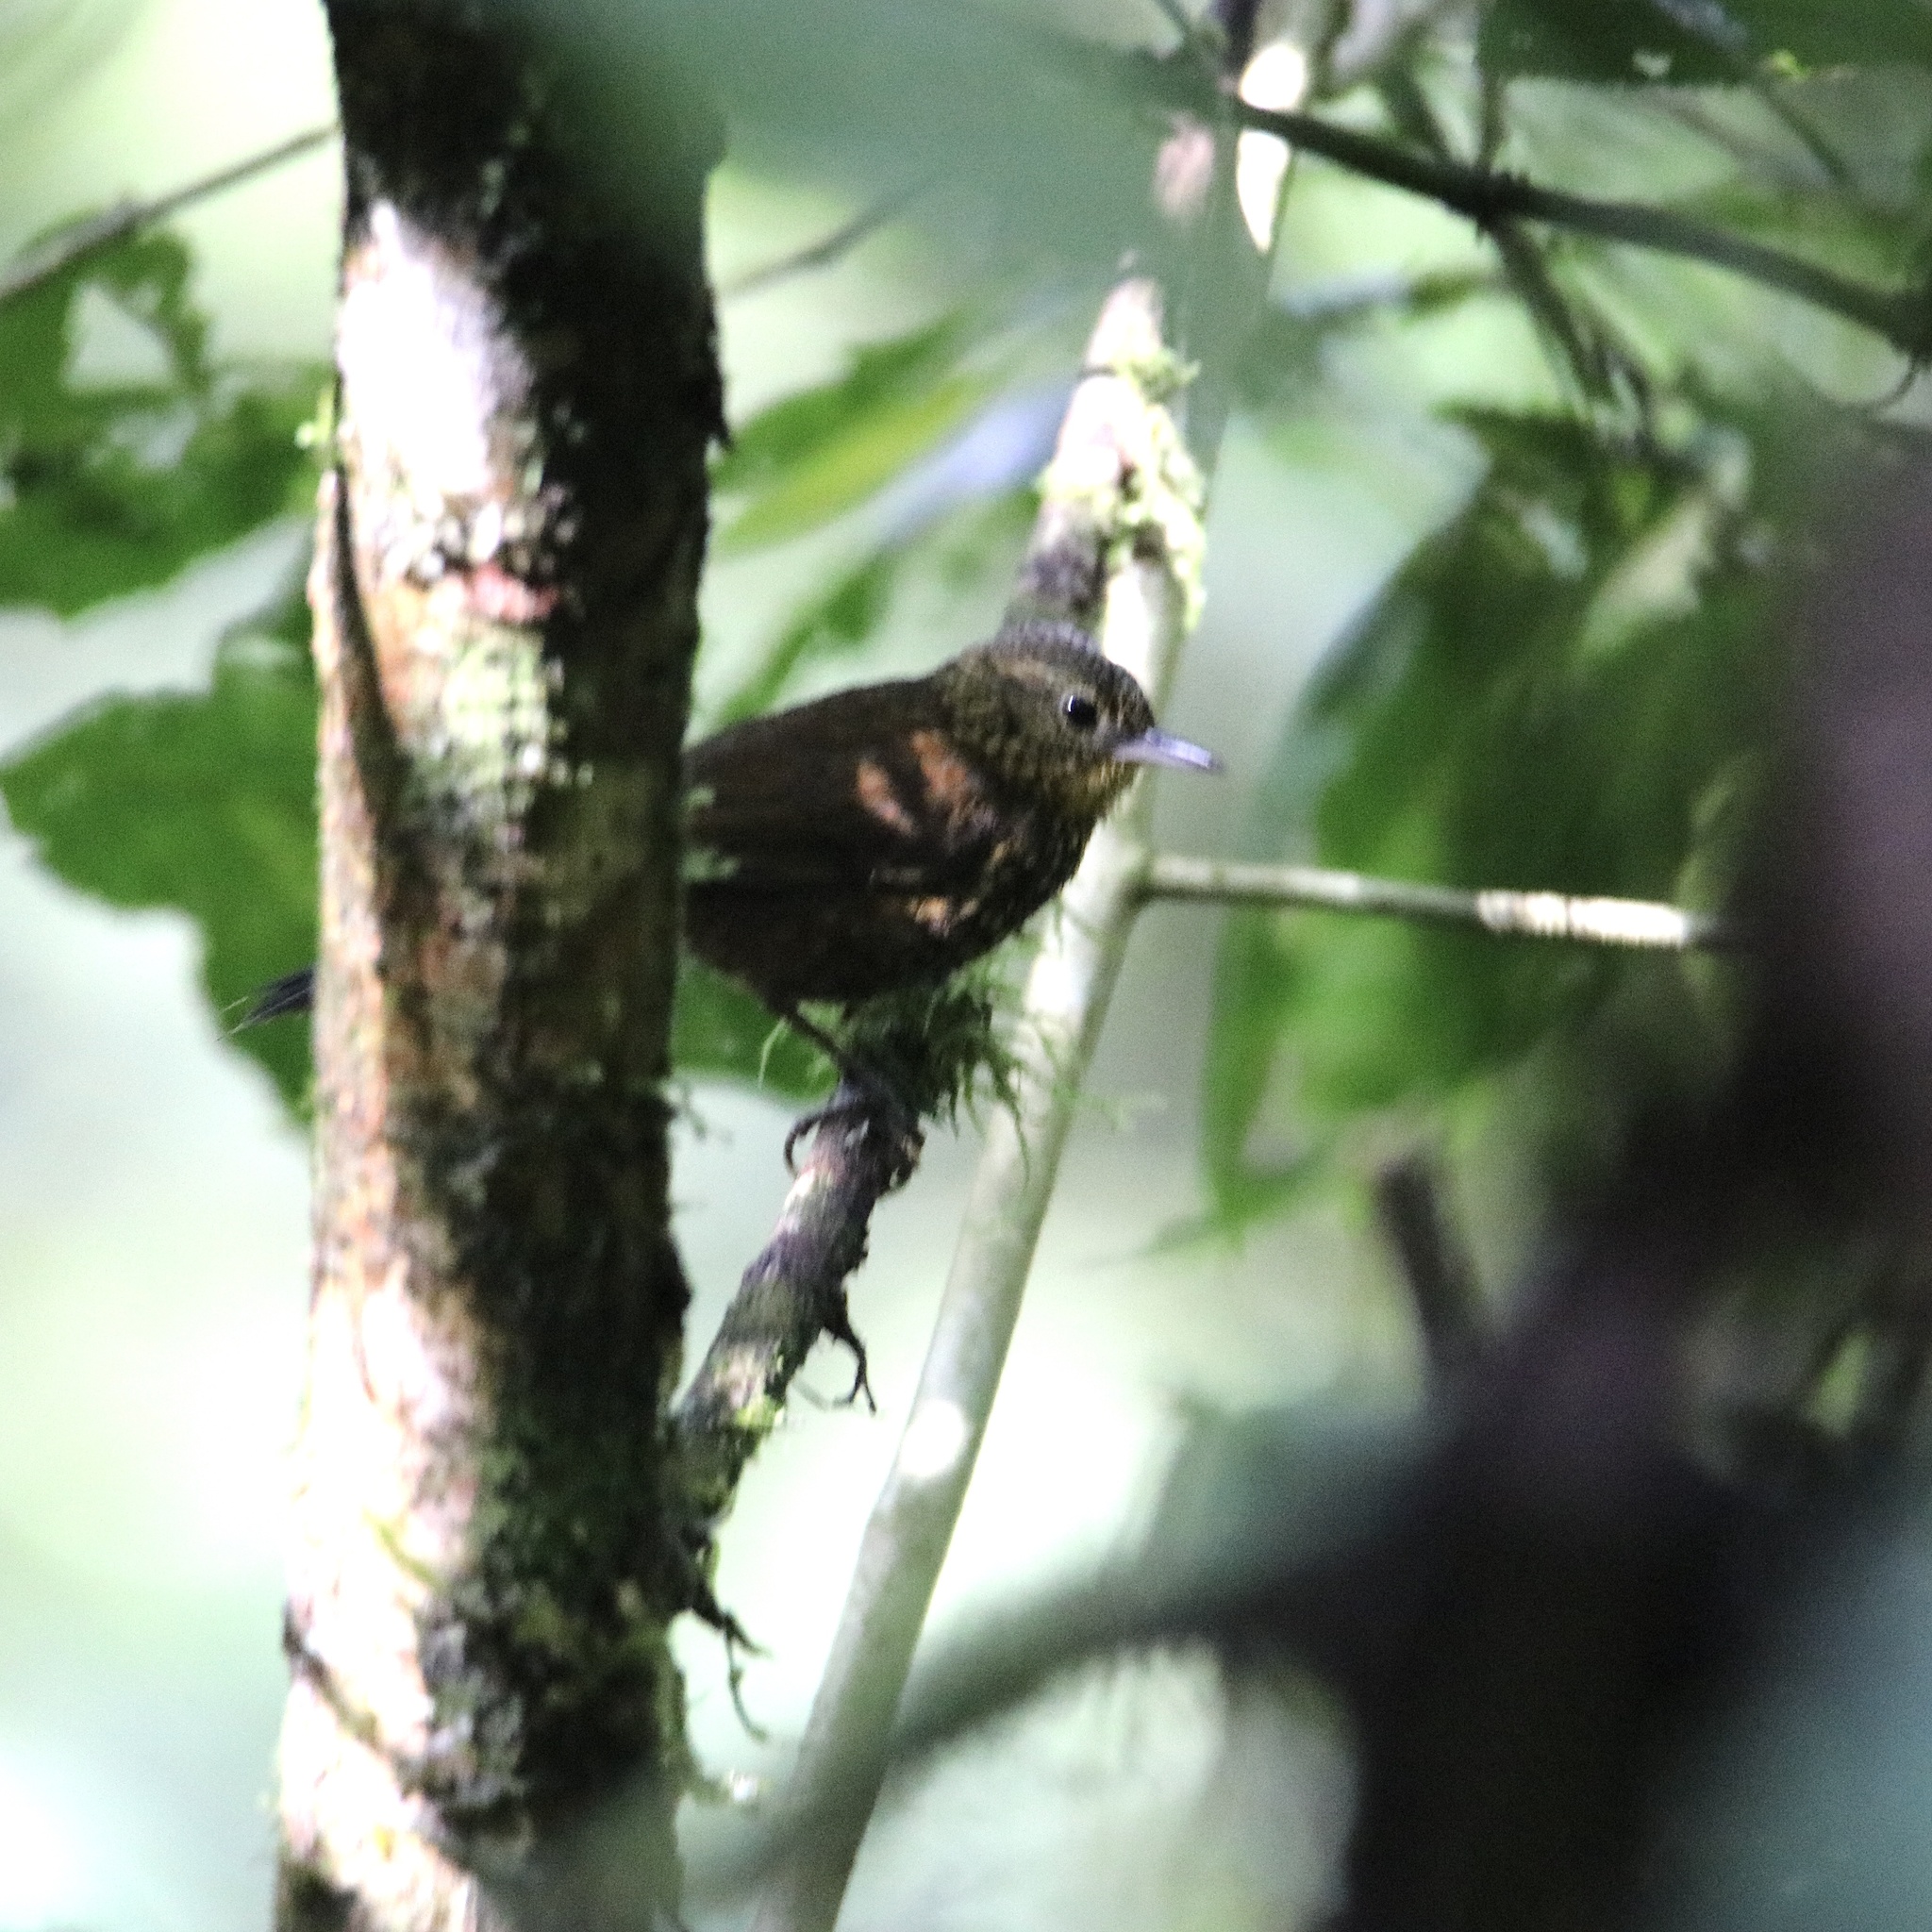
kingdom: Animalia
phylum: Chordata
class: Aves
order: Passeriformes
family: Furnariidae
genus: Premnoplex
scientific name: Premnoplex brunnescens
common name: Spotted barbtail
